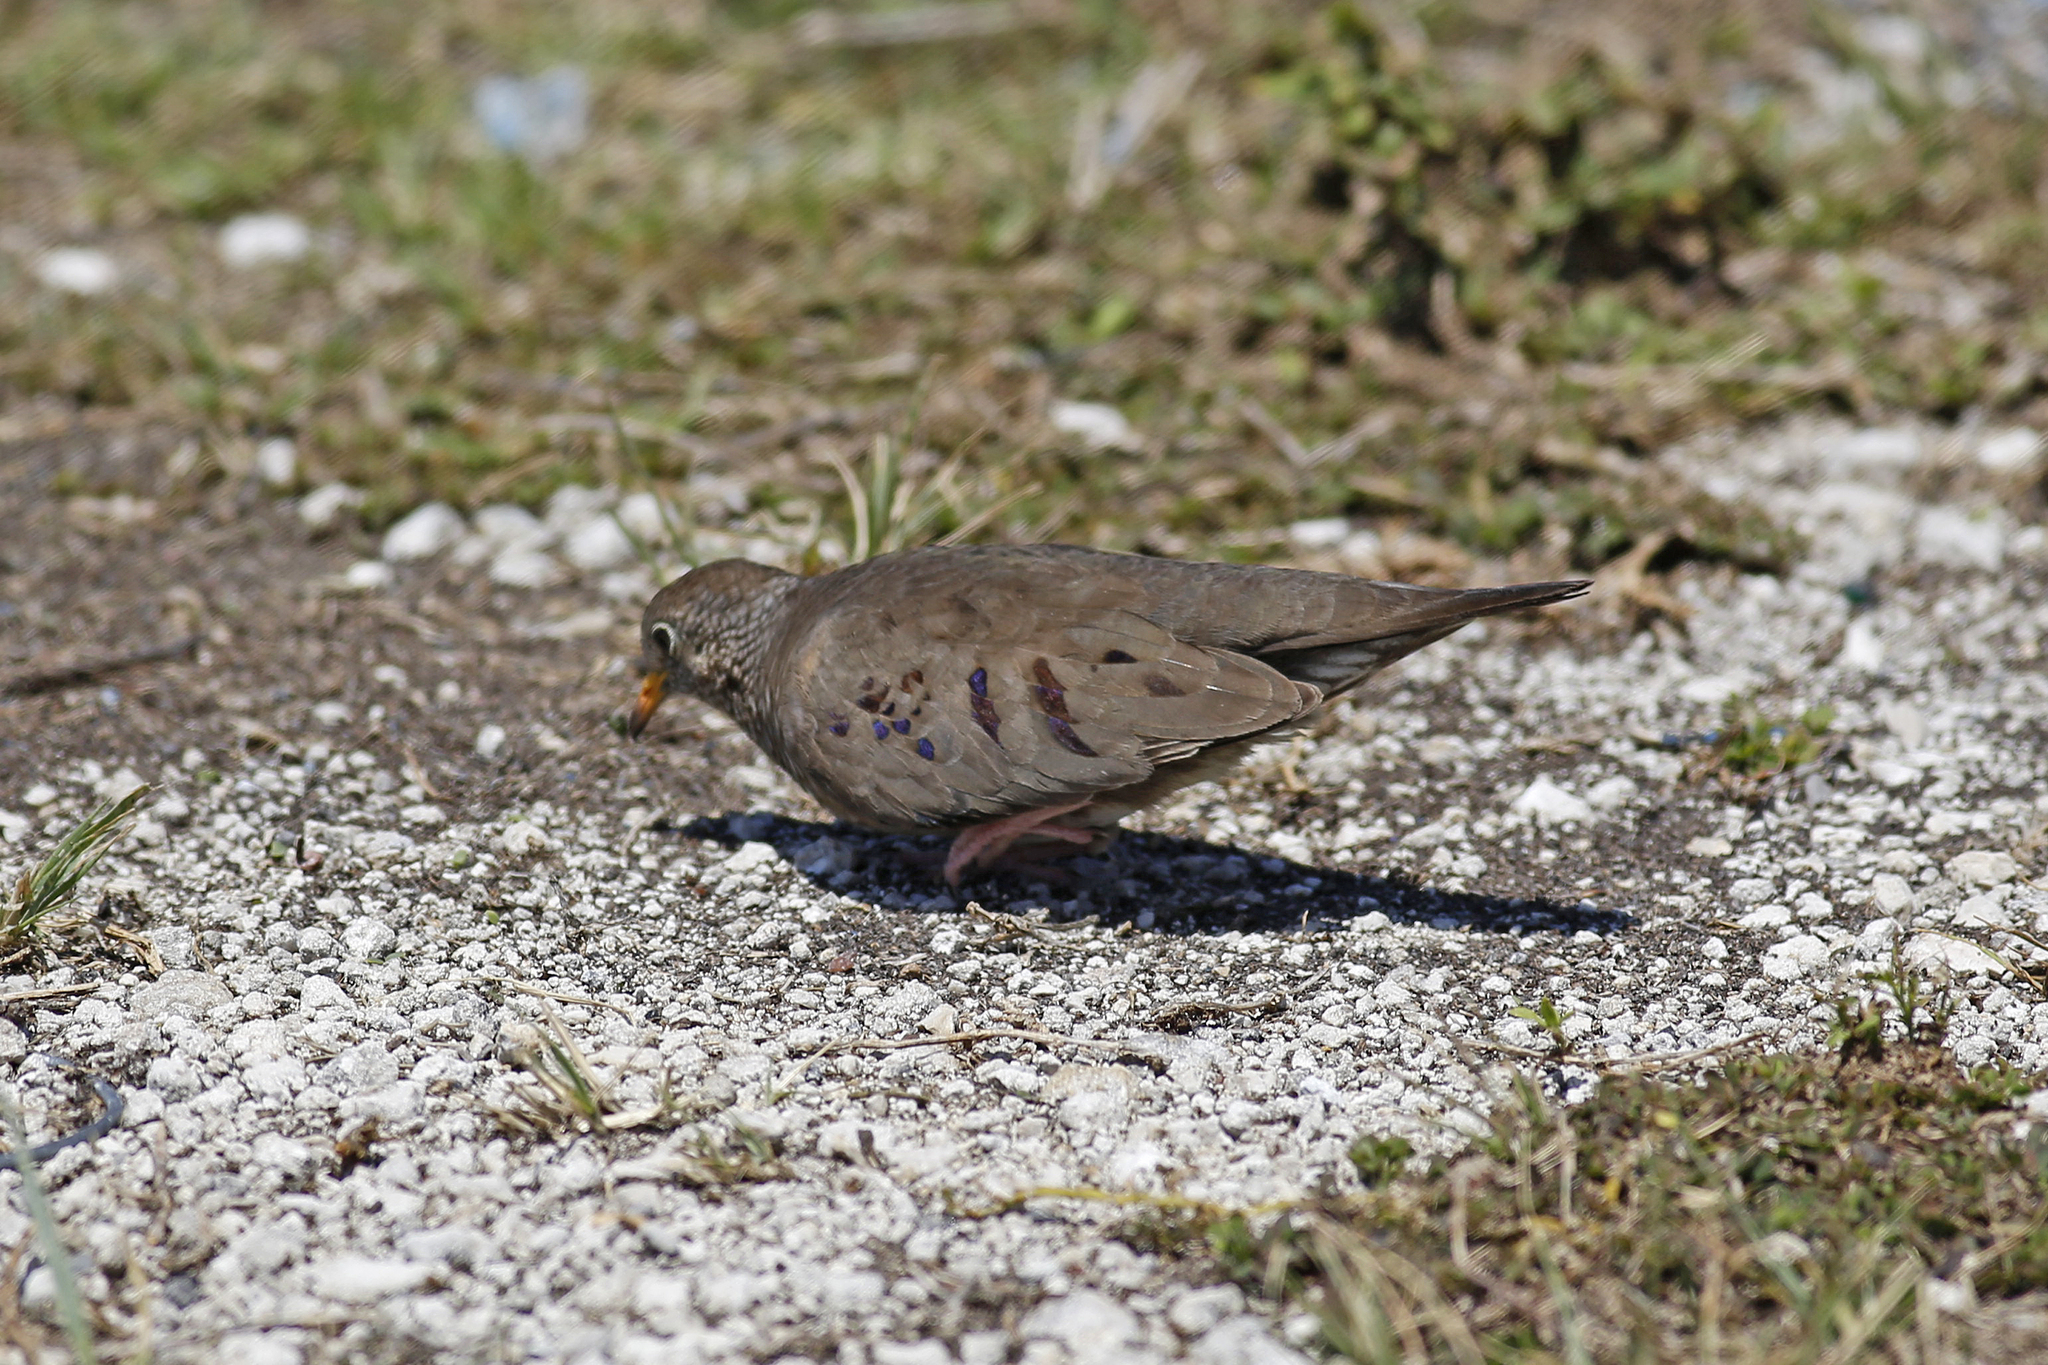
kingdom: Animalia
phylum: Chordata
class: Aves
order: Columbiformes
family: Columbidae
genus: Columbina
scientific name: Columbina passerina
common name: Common ground-dove
